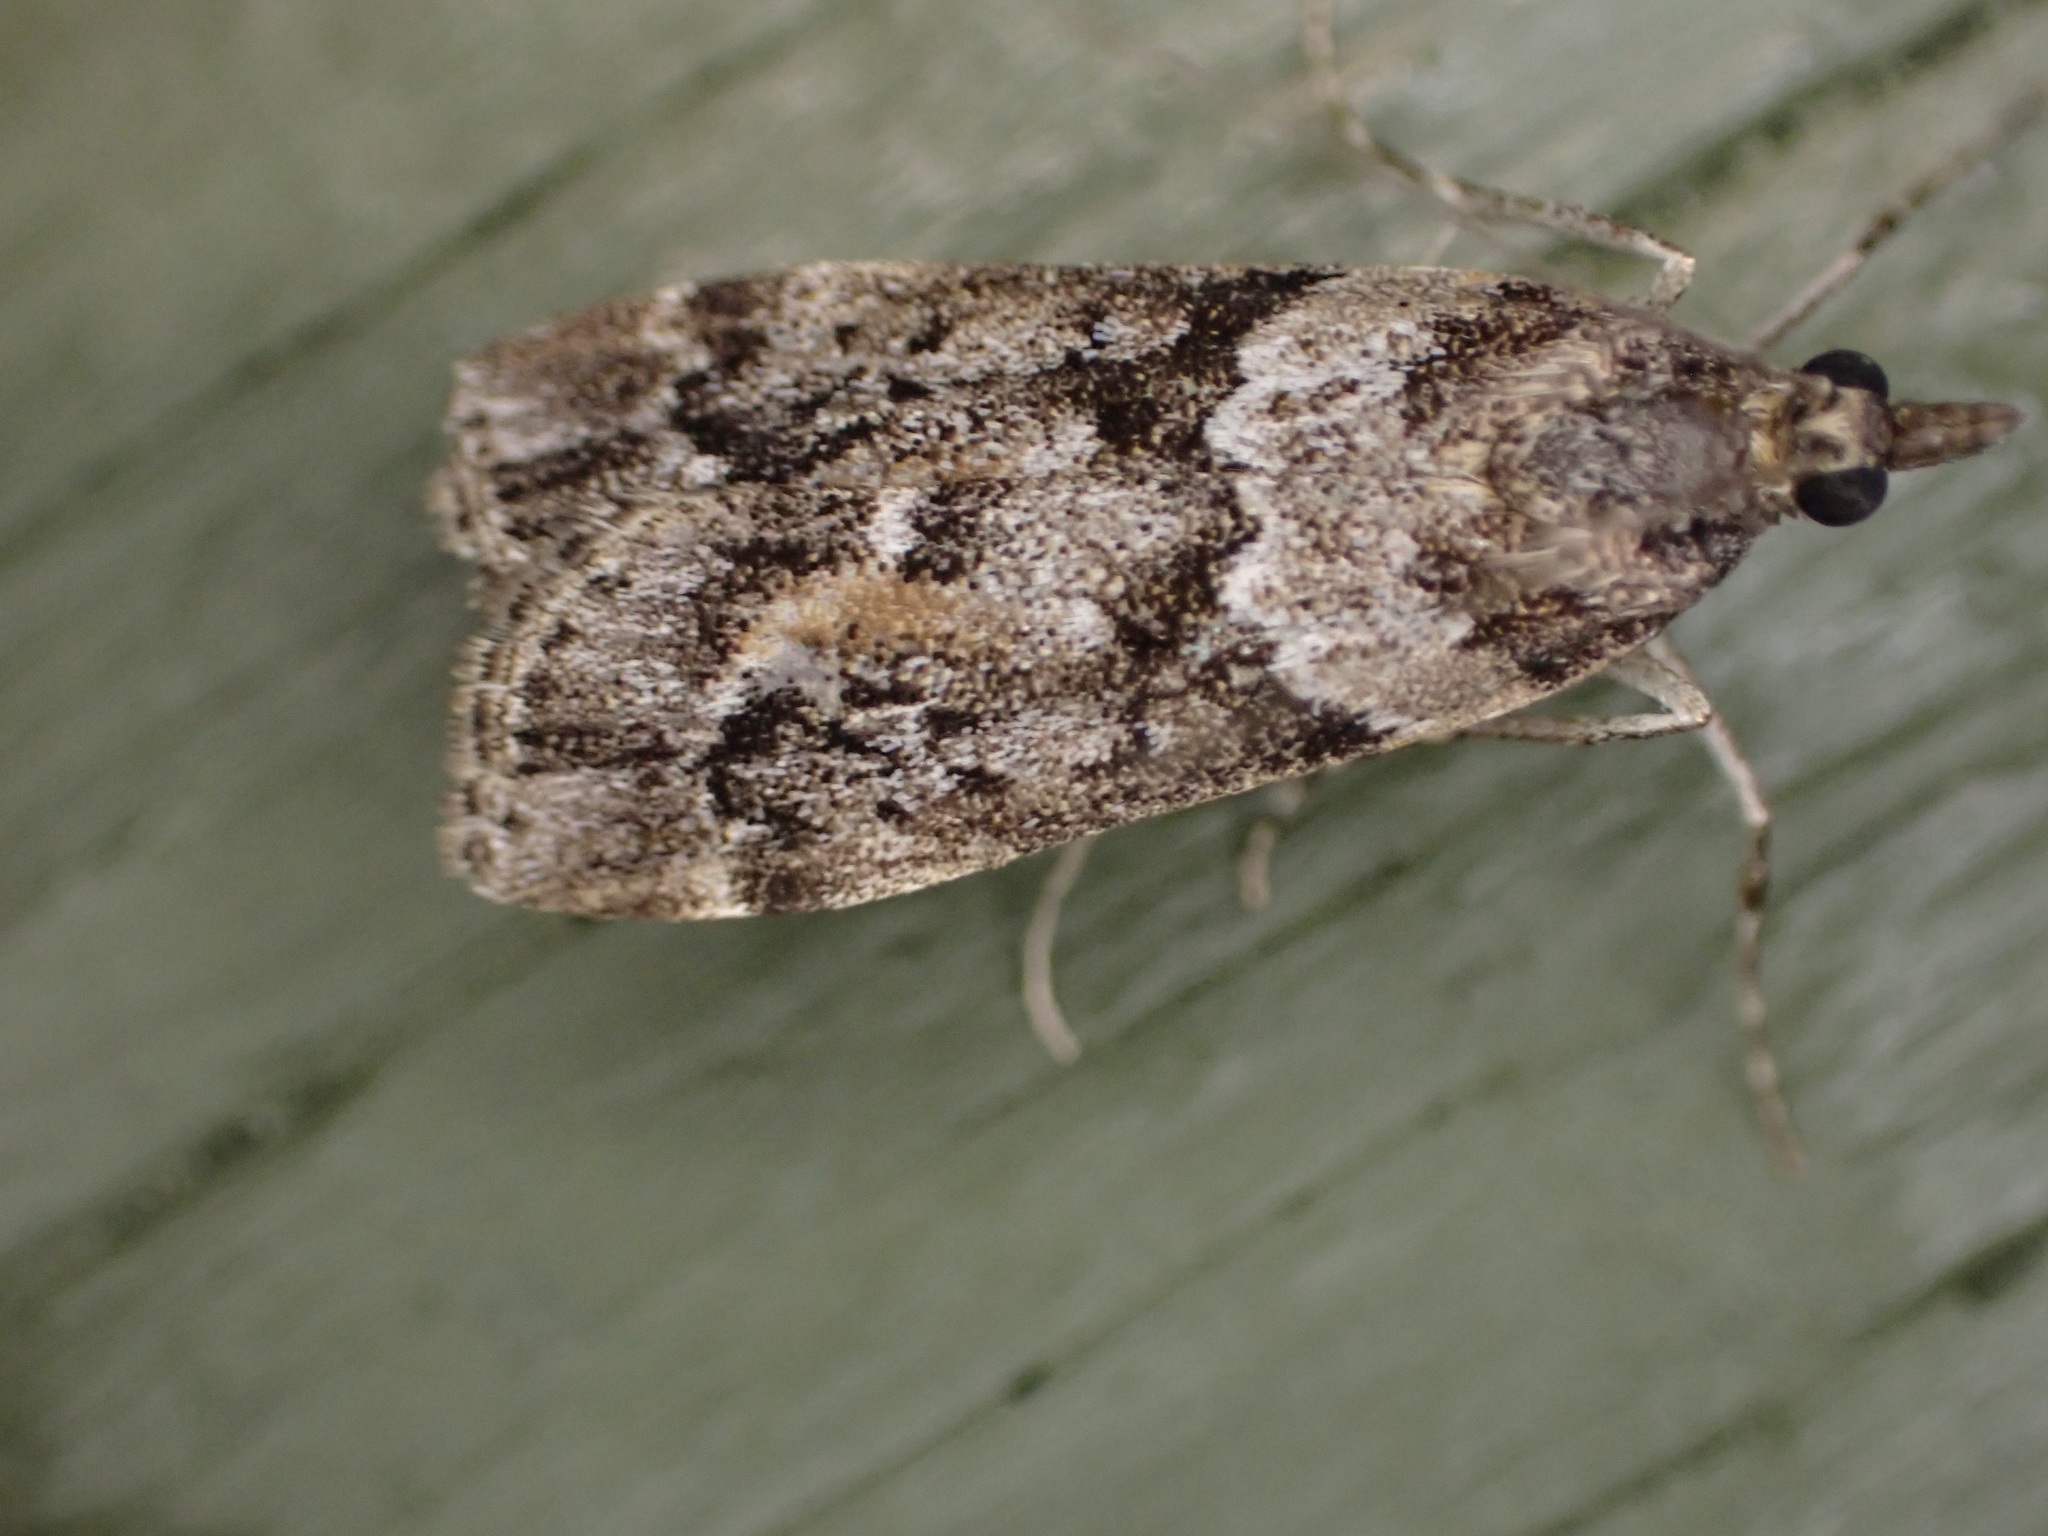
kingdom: Animalia
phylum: Arthropoda
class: Insecta
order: Lepidoptera
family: Crambidae
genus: Eudonia
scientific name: Eudonia submarginalis
